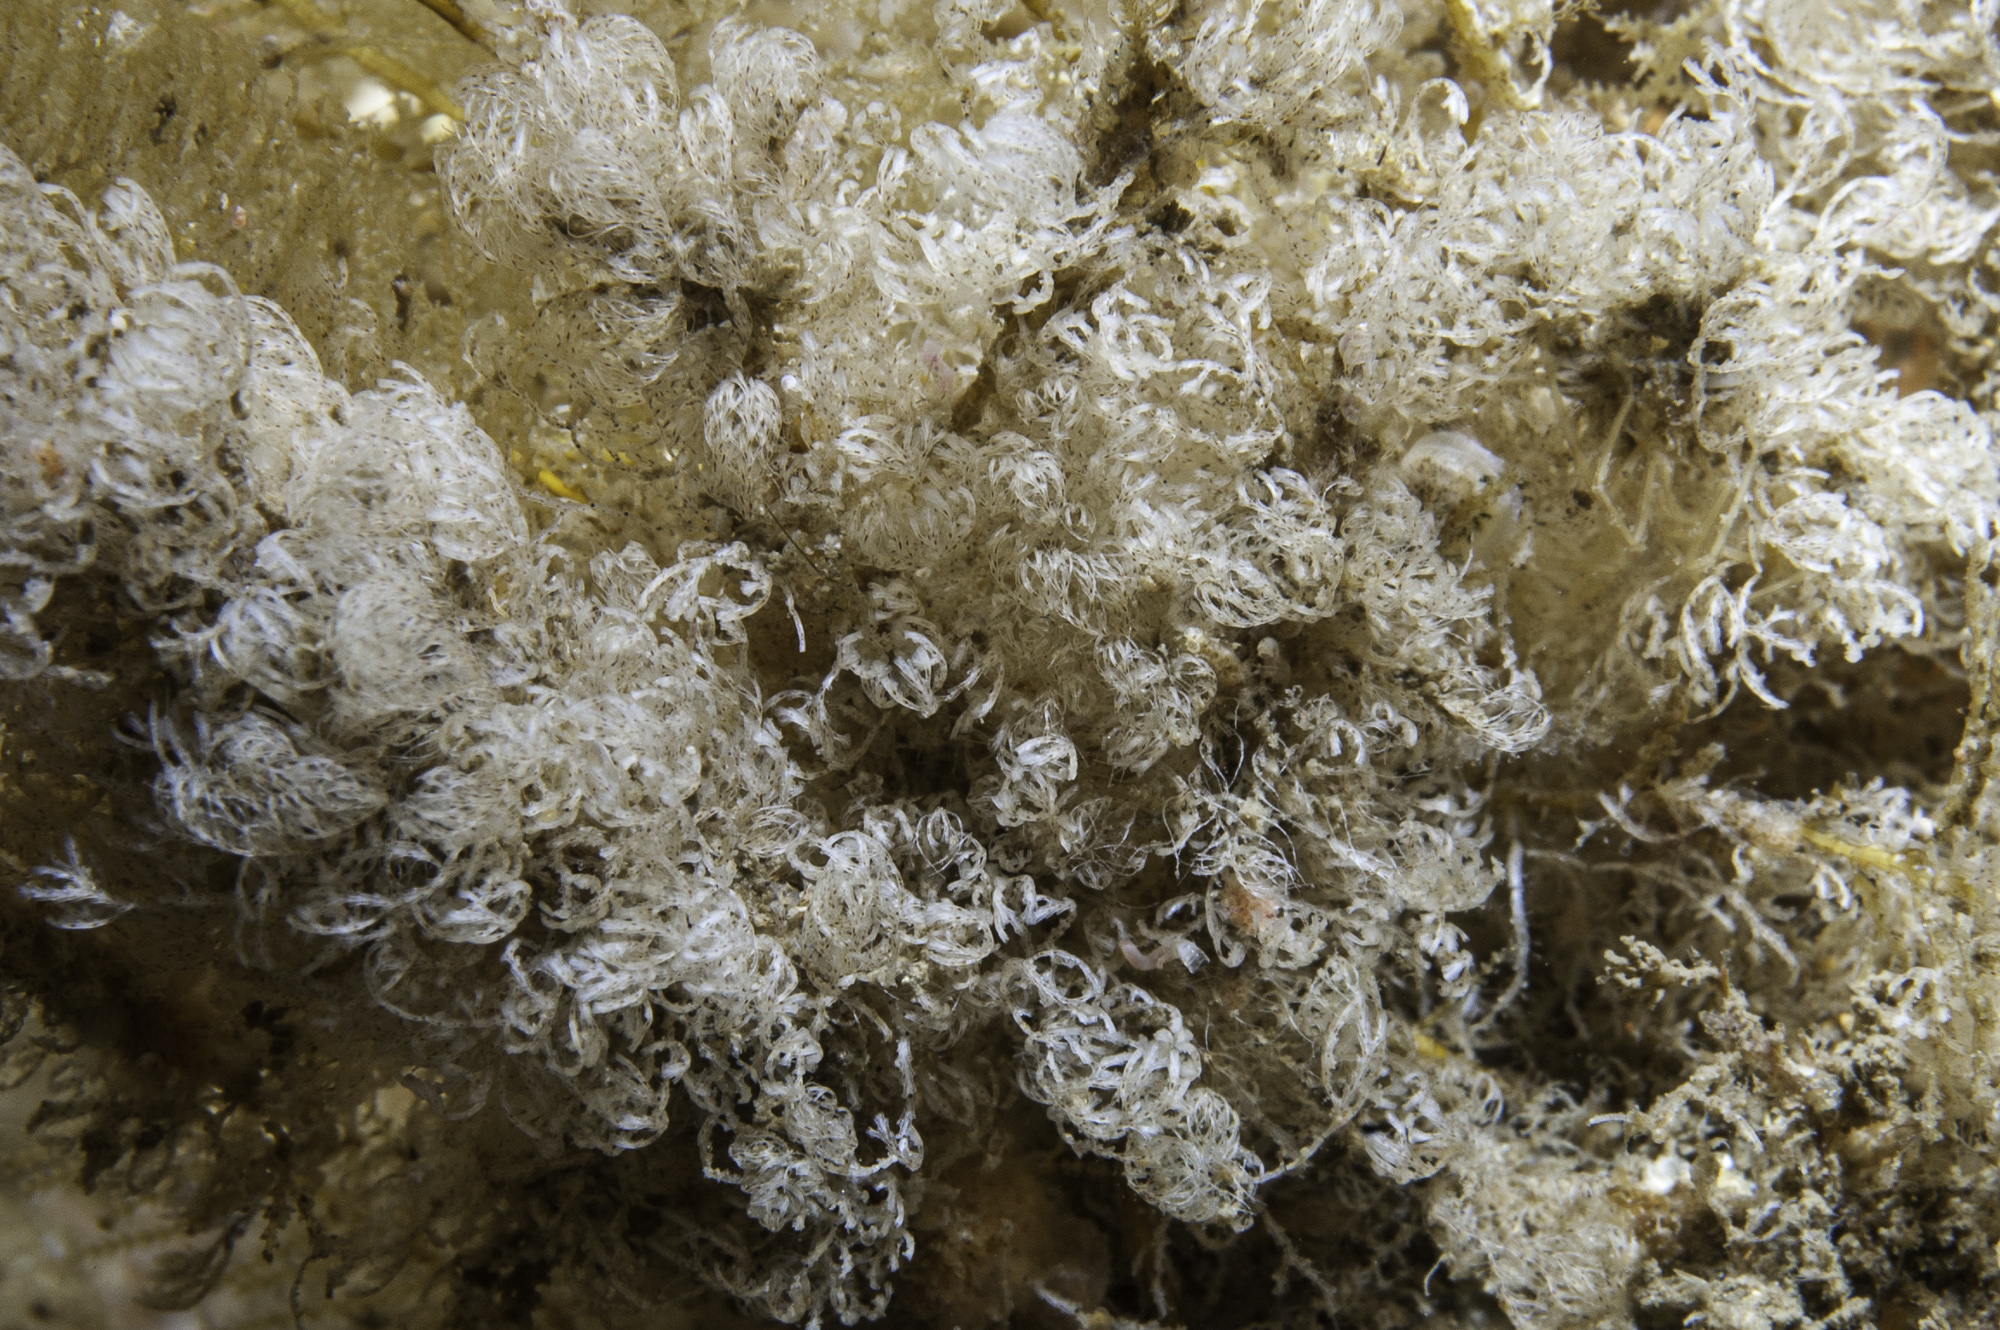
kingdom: Animalia
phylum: Bryozoa
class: Stenolaemata
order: Cyclostomatida
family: Crisiidae
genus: Crisia
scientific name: Crisia eburnea
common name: Ivory bryozoan
